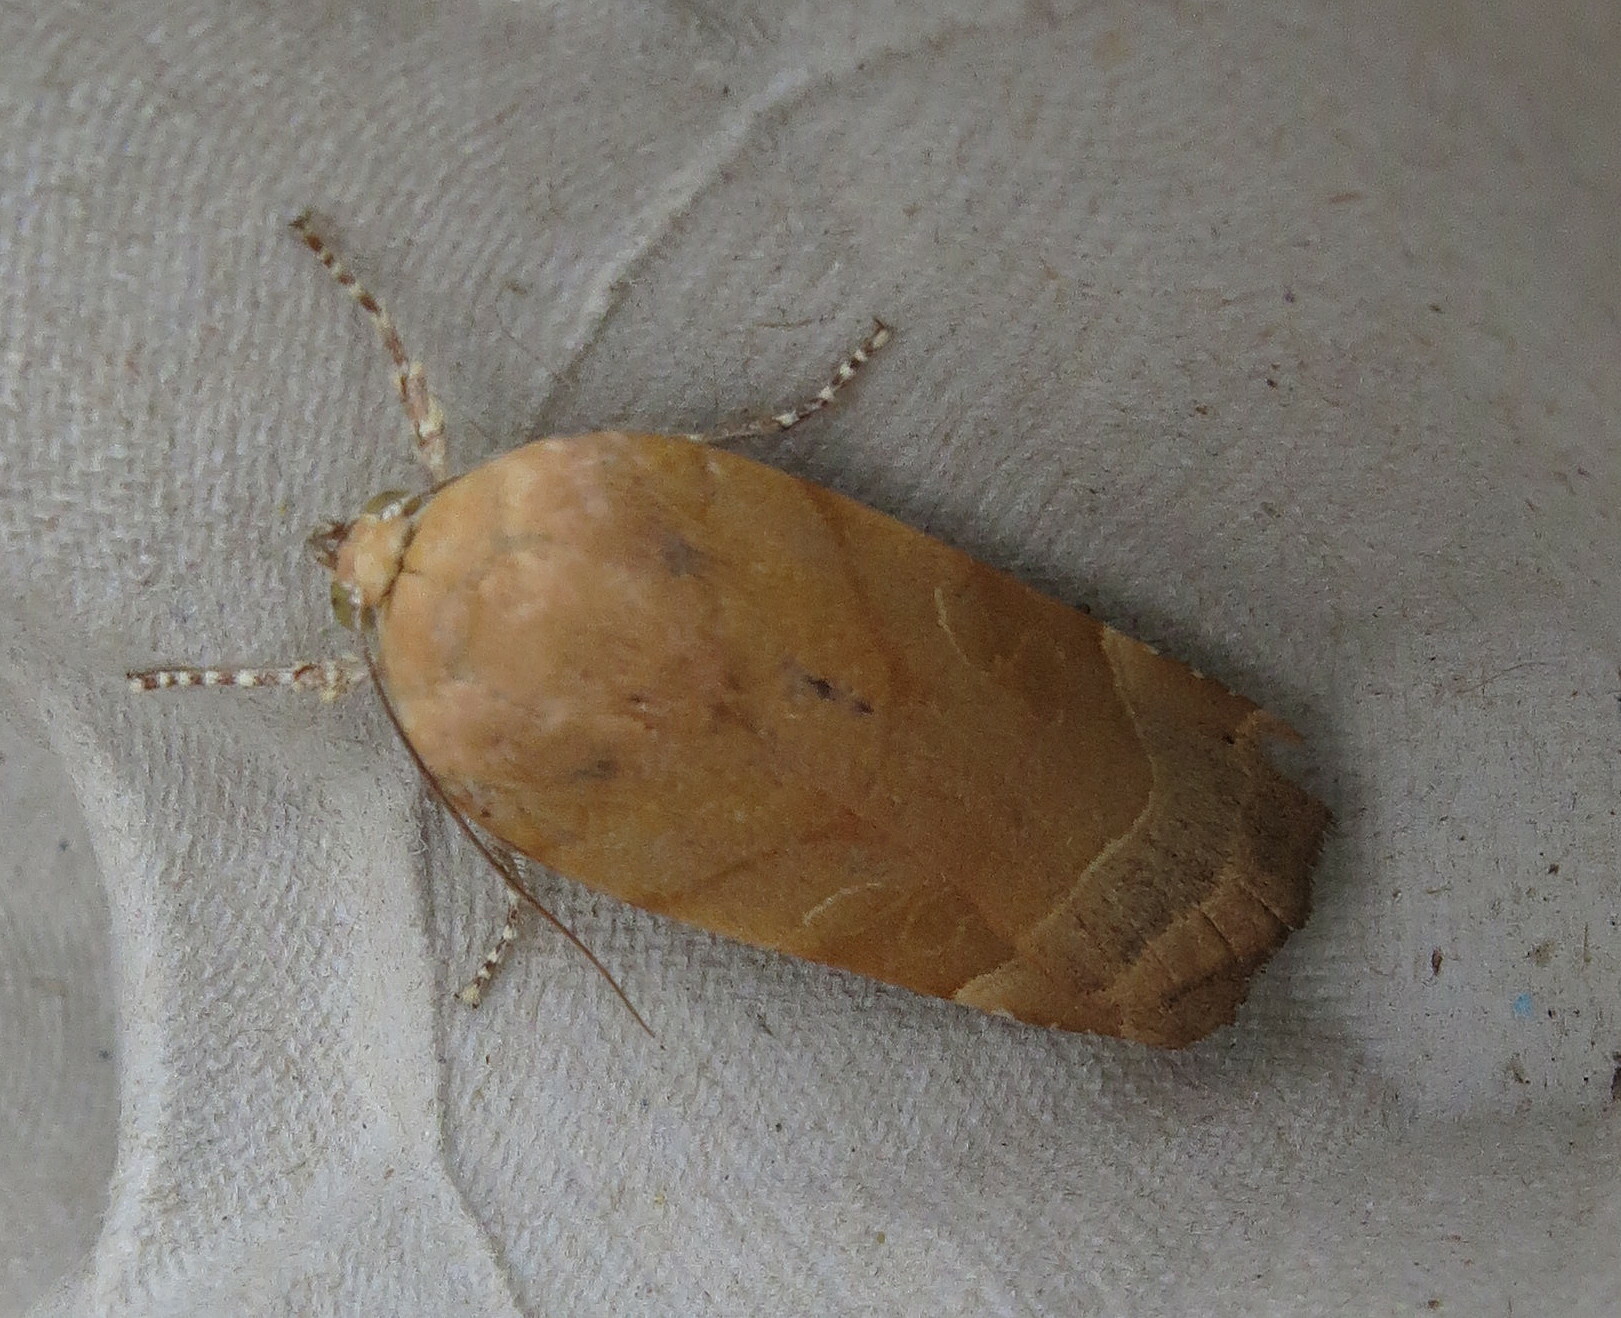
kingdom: Animalia
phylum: Arthropoda
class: Insecta
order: Lepidoptera
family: Noctuidae
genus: Noctua
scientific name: Noctua fimbriata
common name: Broad-bordered yellow underwing
